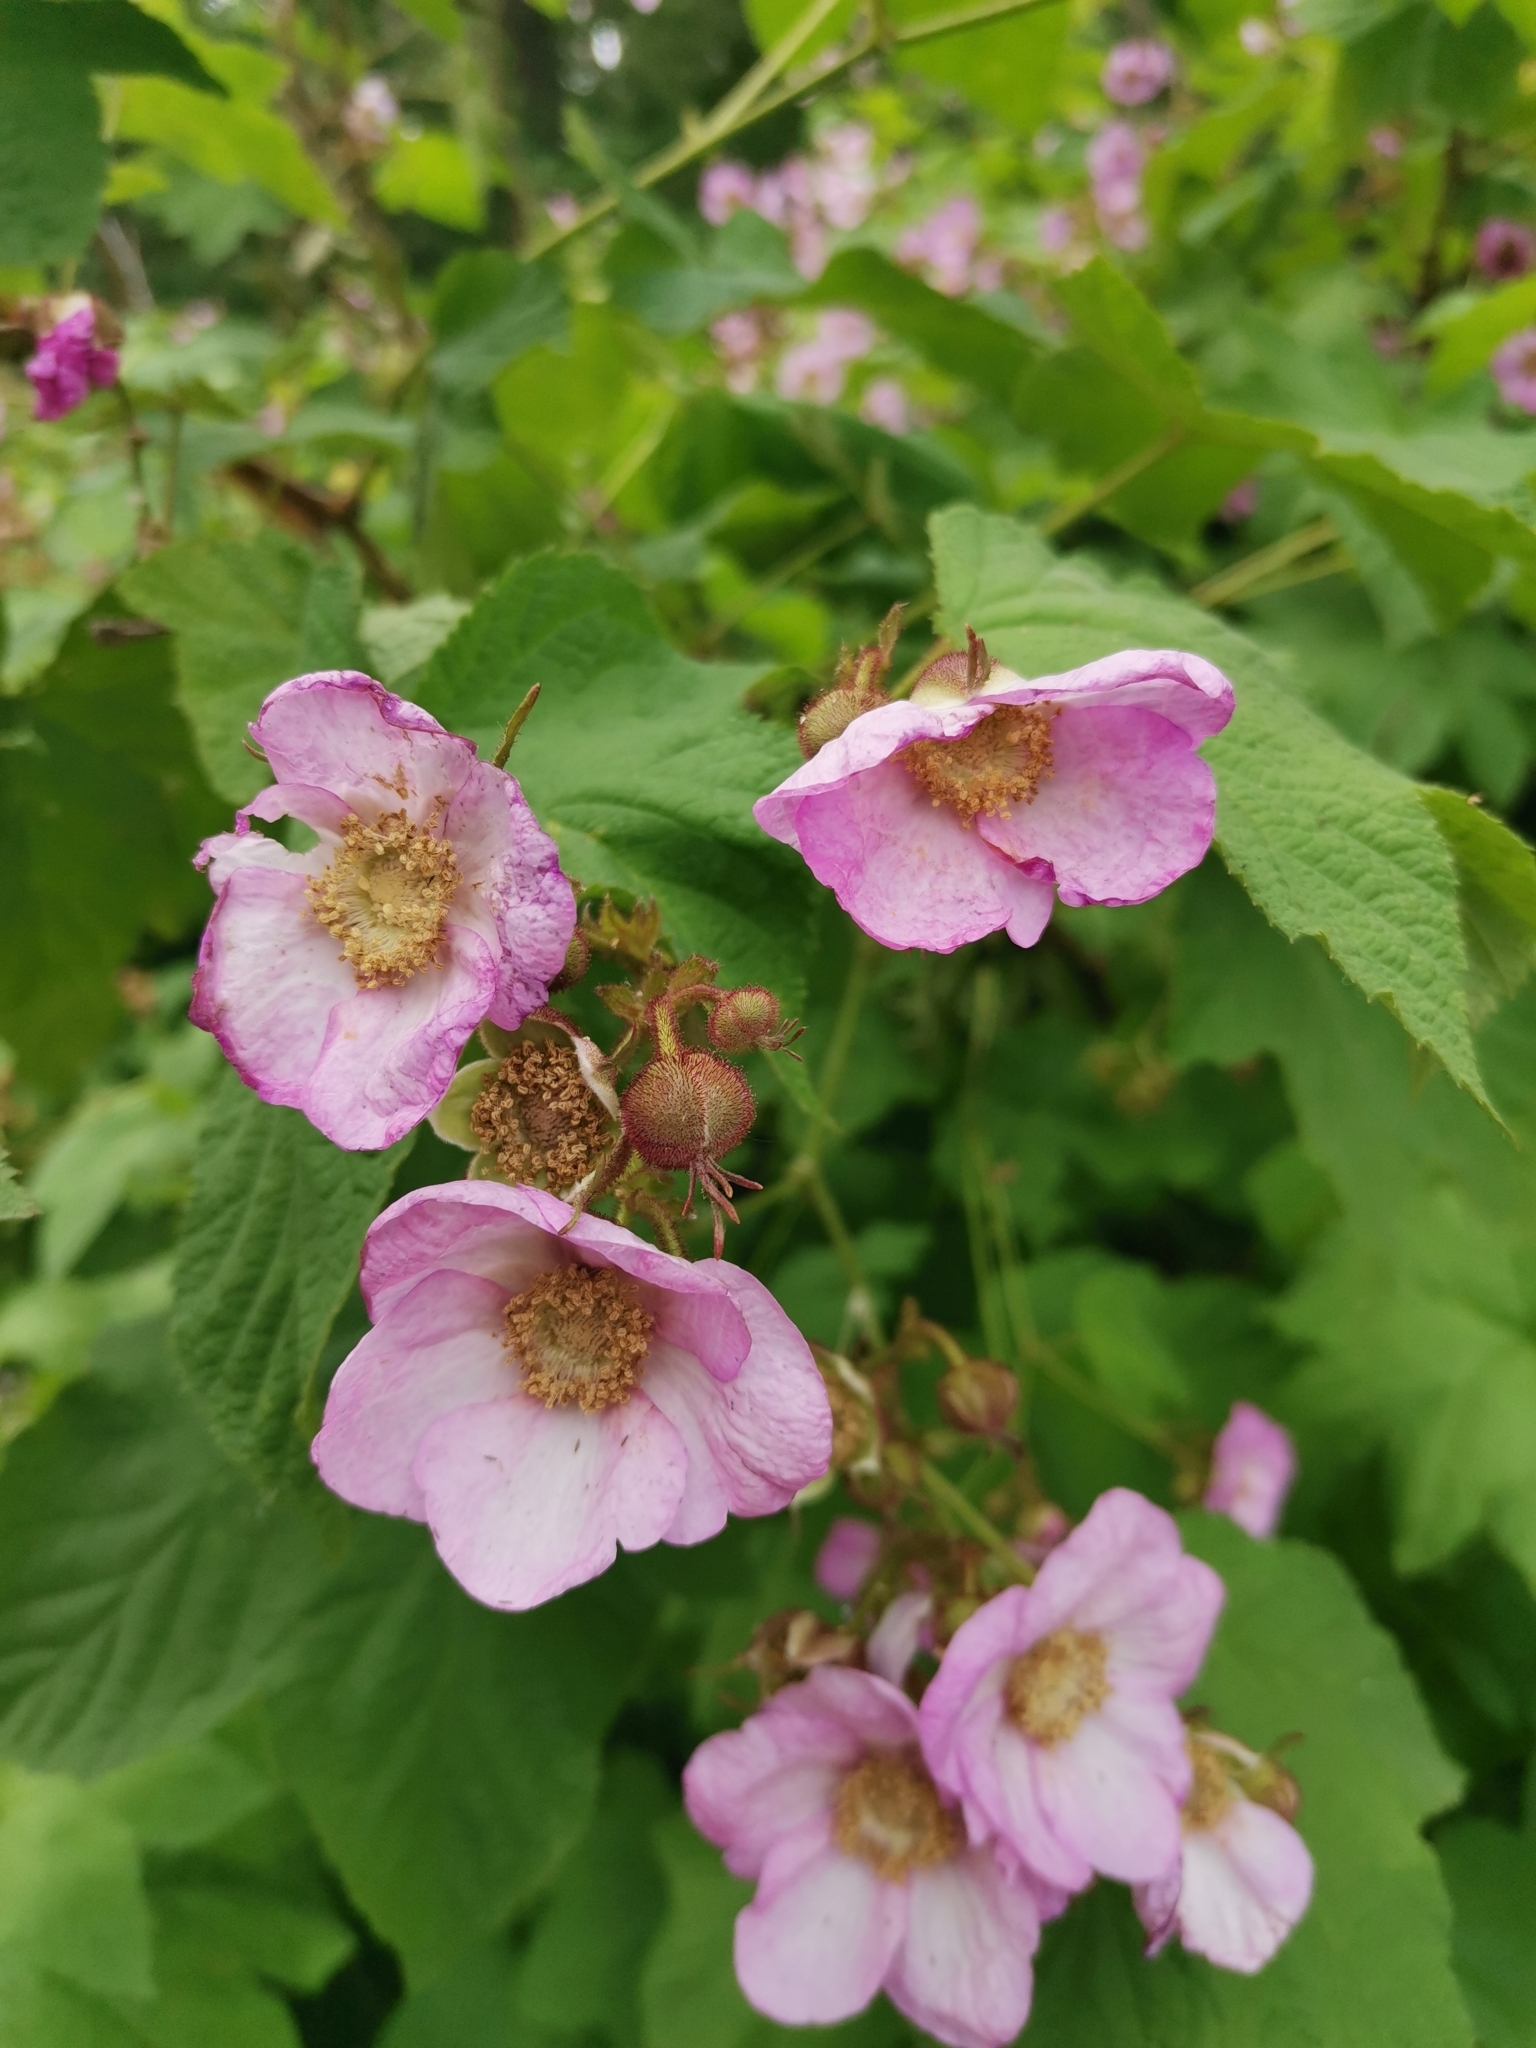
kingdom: Plantae
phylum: Tracheophyta
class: Magnoliopsida
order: Rosales
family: Rosaceae
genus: Rubus
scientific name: Rubus odoratus
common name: Purple-flowered raspberry
